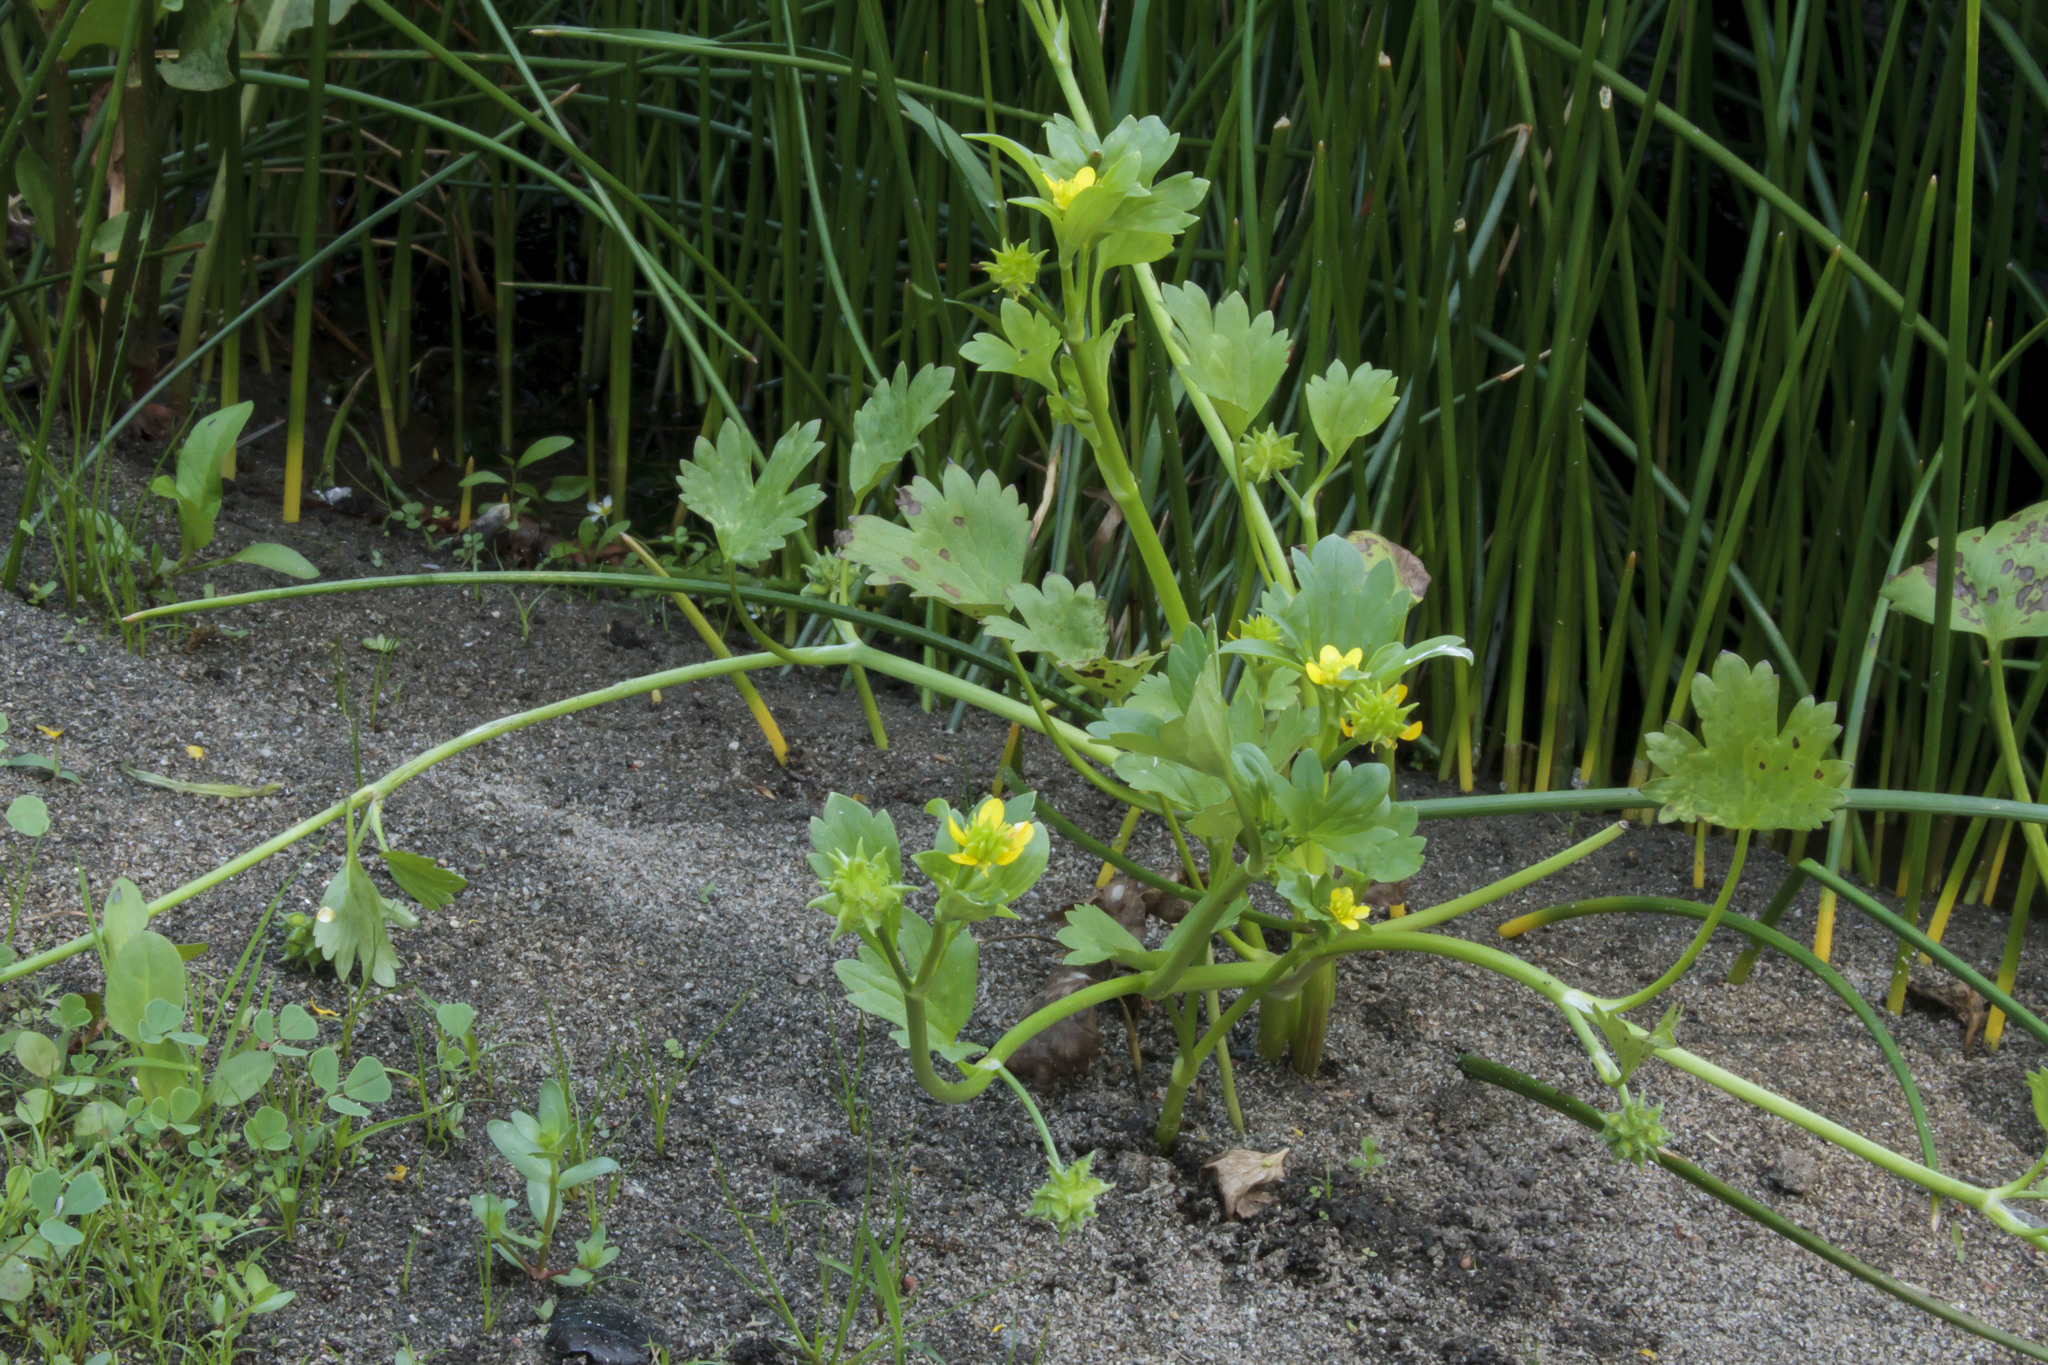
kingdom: Plantae
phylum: Tracheophyta
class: Magnoliopsida
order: Ranunculales
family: Ranunculaceae
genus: Ranunculus
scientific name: Ranunculus muricatus
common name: Rough-fruited buttercup
